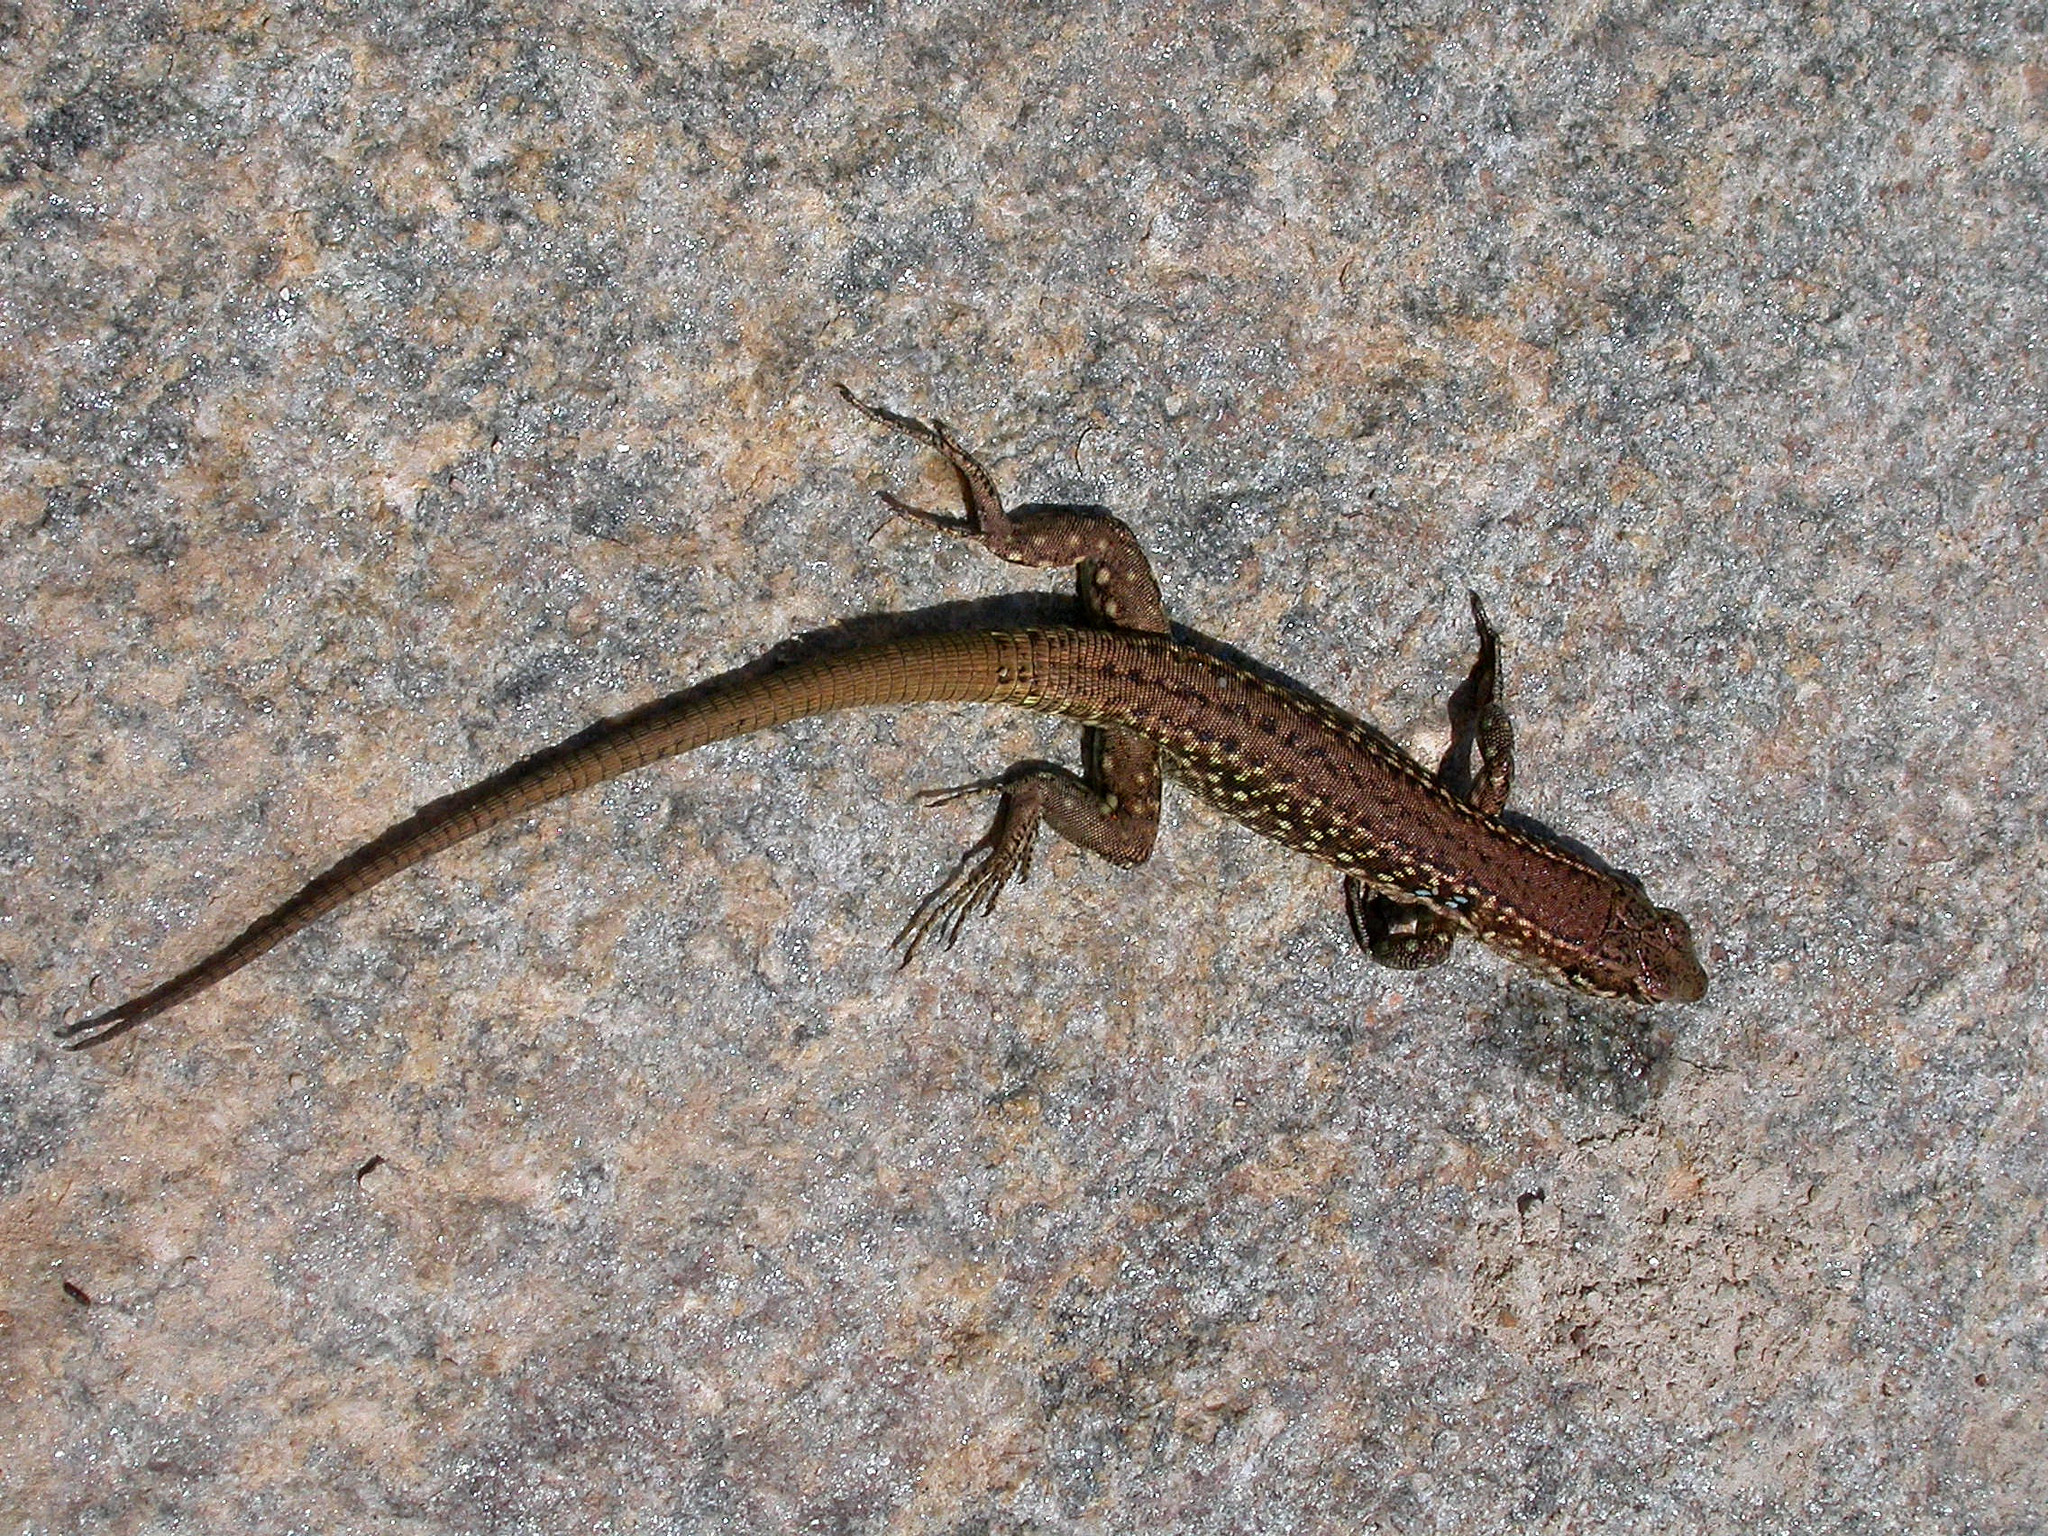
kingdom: Animalia
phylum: Chordata
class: Squamata
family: Lacertidae
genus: Podarcis
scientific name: Podarcis tiliguerta
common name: Tyrrhenian wall lizard
